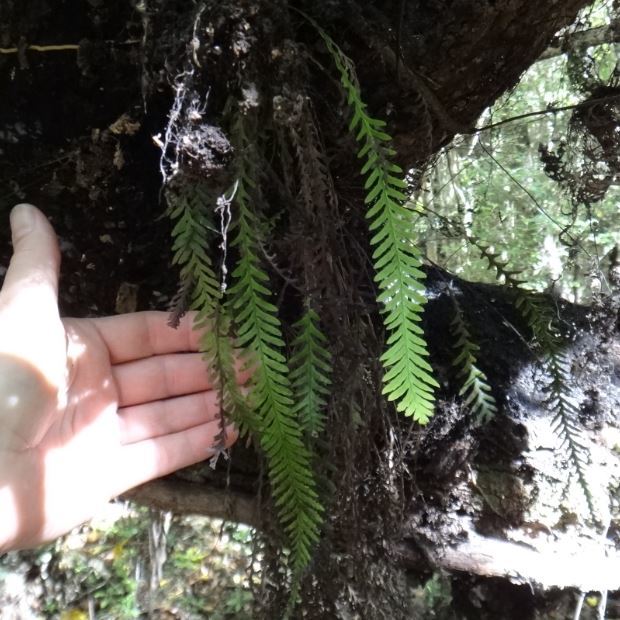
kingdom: Plantae
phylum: Tracheophyta
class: Polypodiopsida
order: Polypodiales
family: Polypodiaceae
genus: Notogrammitis
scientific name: Notogrammitis heterophylla
